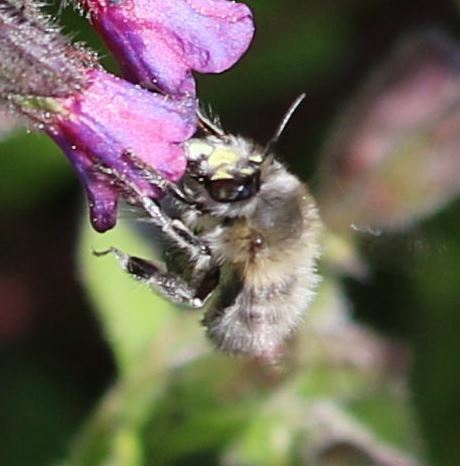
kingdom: Animalia
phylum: Arthropoda
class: Insecta
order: Hymenoptera
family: Apidae
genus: Anthophora
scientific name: Anthophora plumipes
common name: Hairy-footed flower bee
